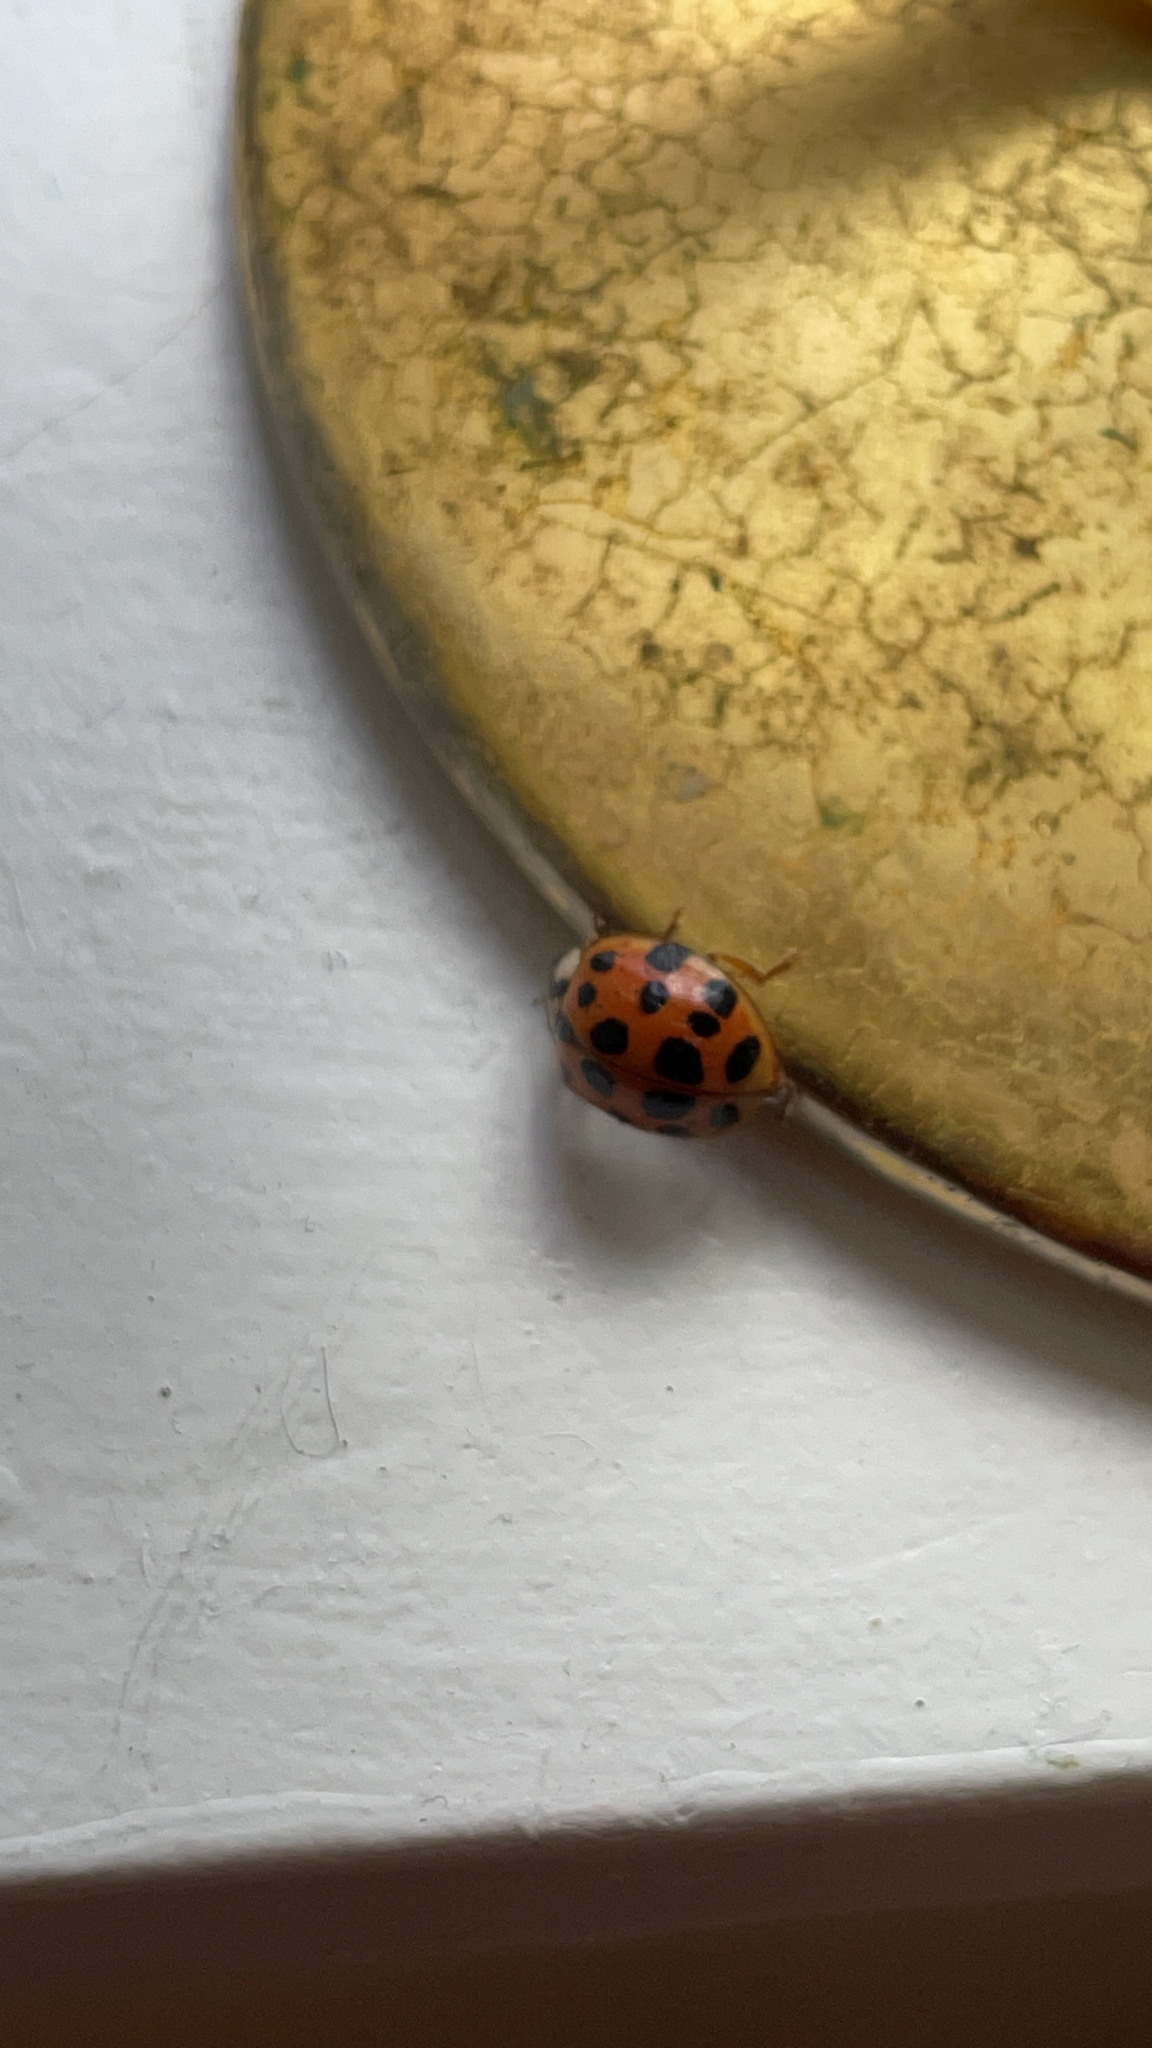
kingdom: Animalia
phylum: Arthropoda
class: Insecta
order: Coleoptera
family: Coccinellidae
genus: Harmonia
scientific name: Harmonia axyridis
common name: Harlequin ladybird
